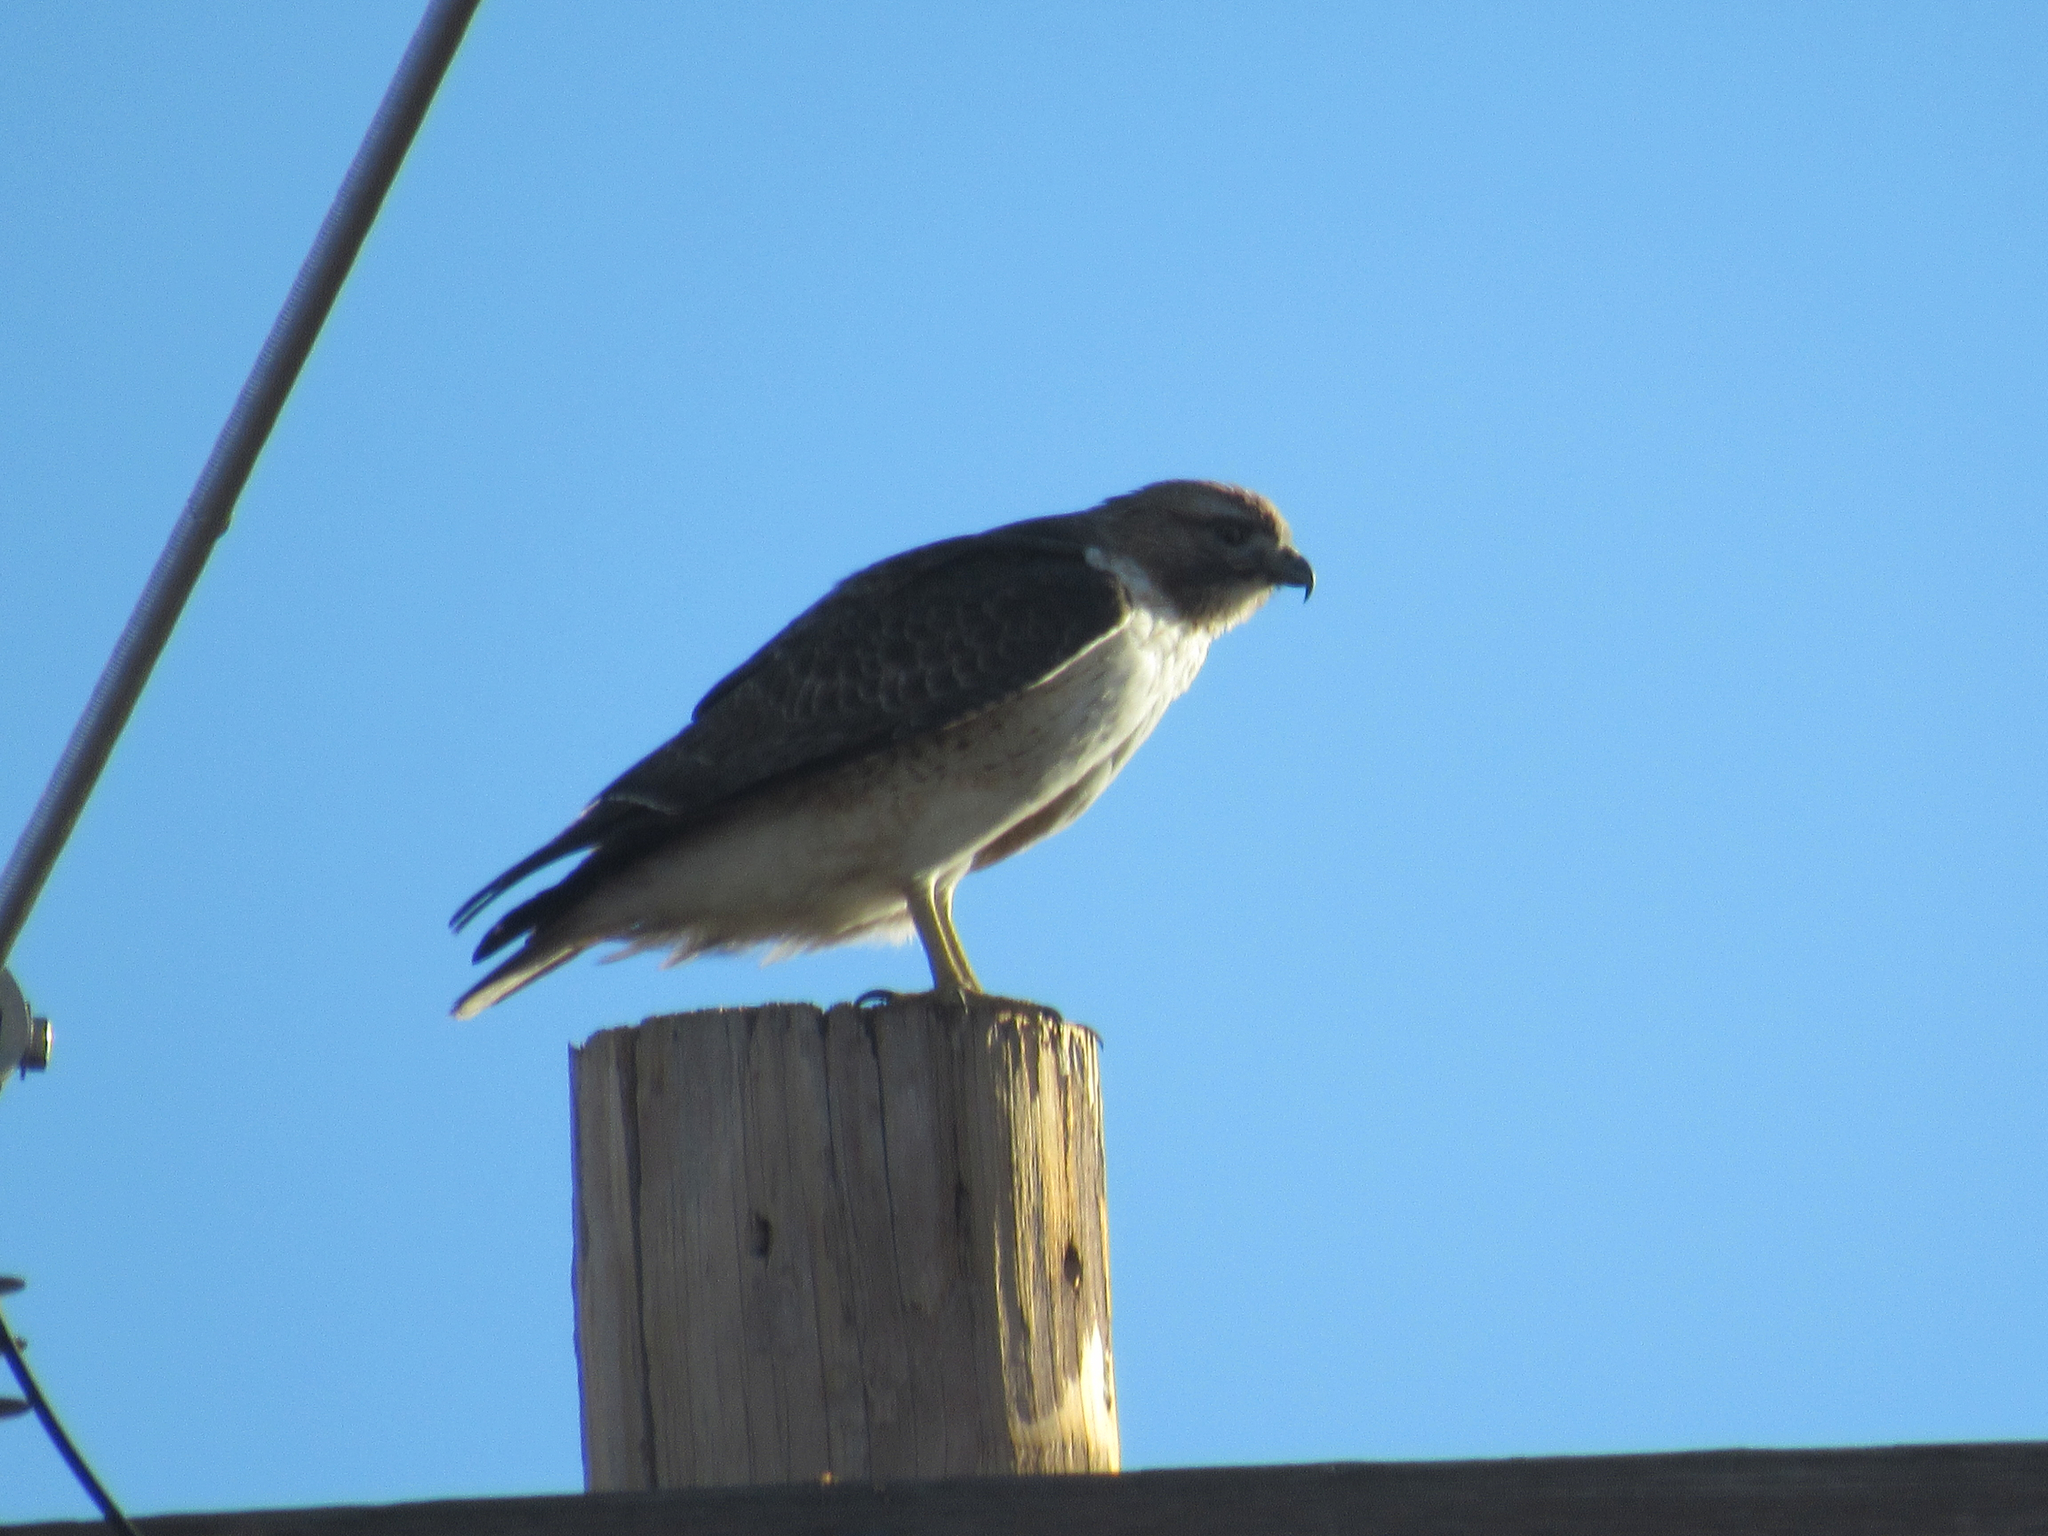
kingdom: Animalia
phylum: Chordata
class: Aves
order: Accipitriformes
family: Accipitridae
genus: Buteo
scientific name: Buteo jamaicensis
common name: Red-tailed hawk
